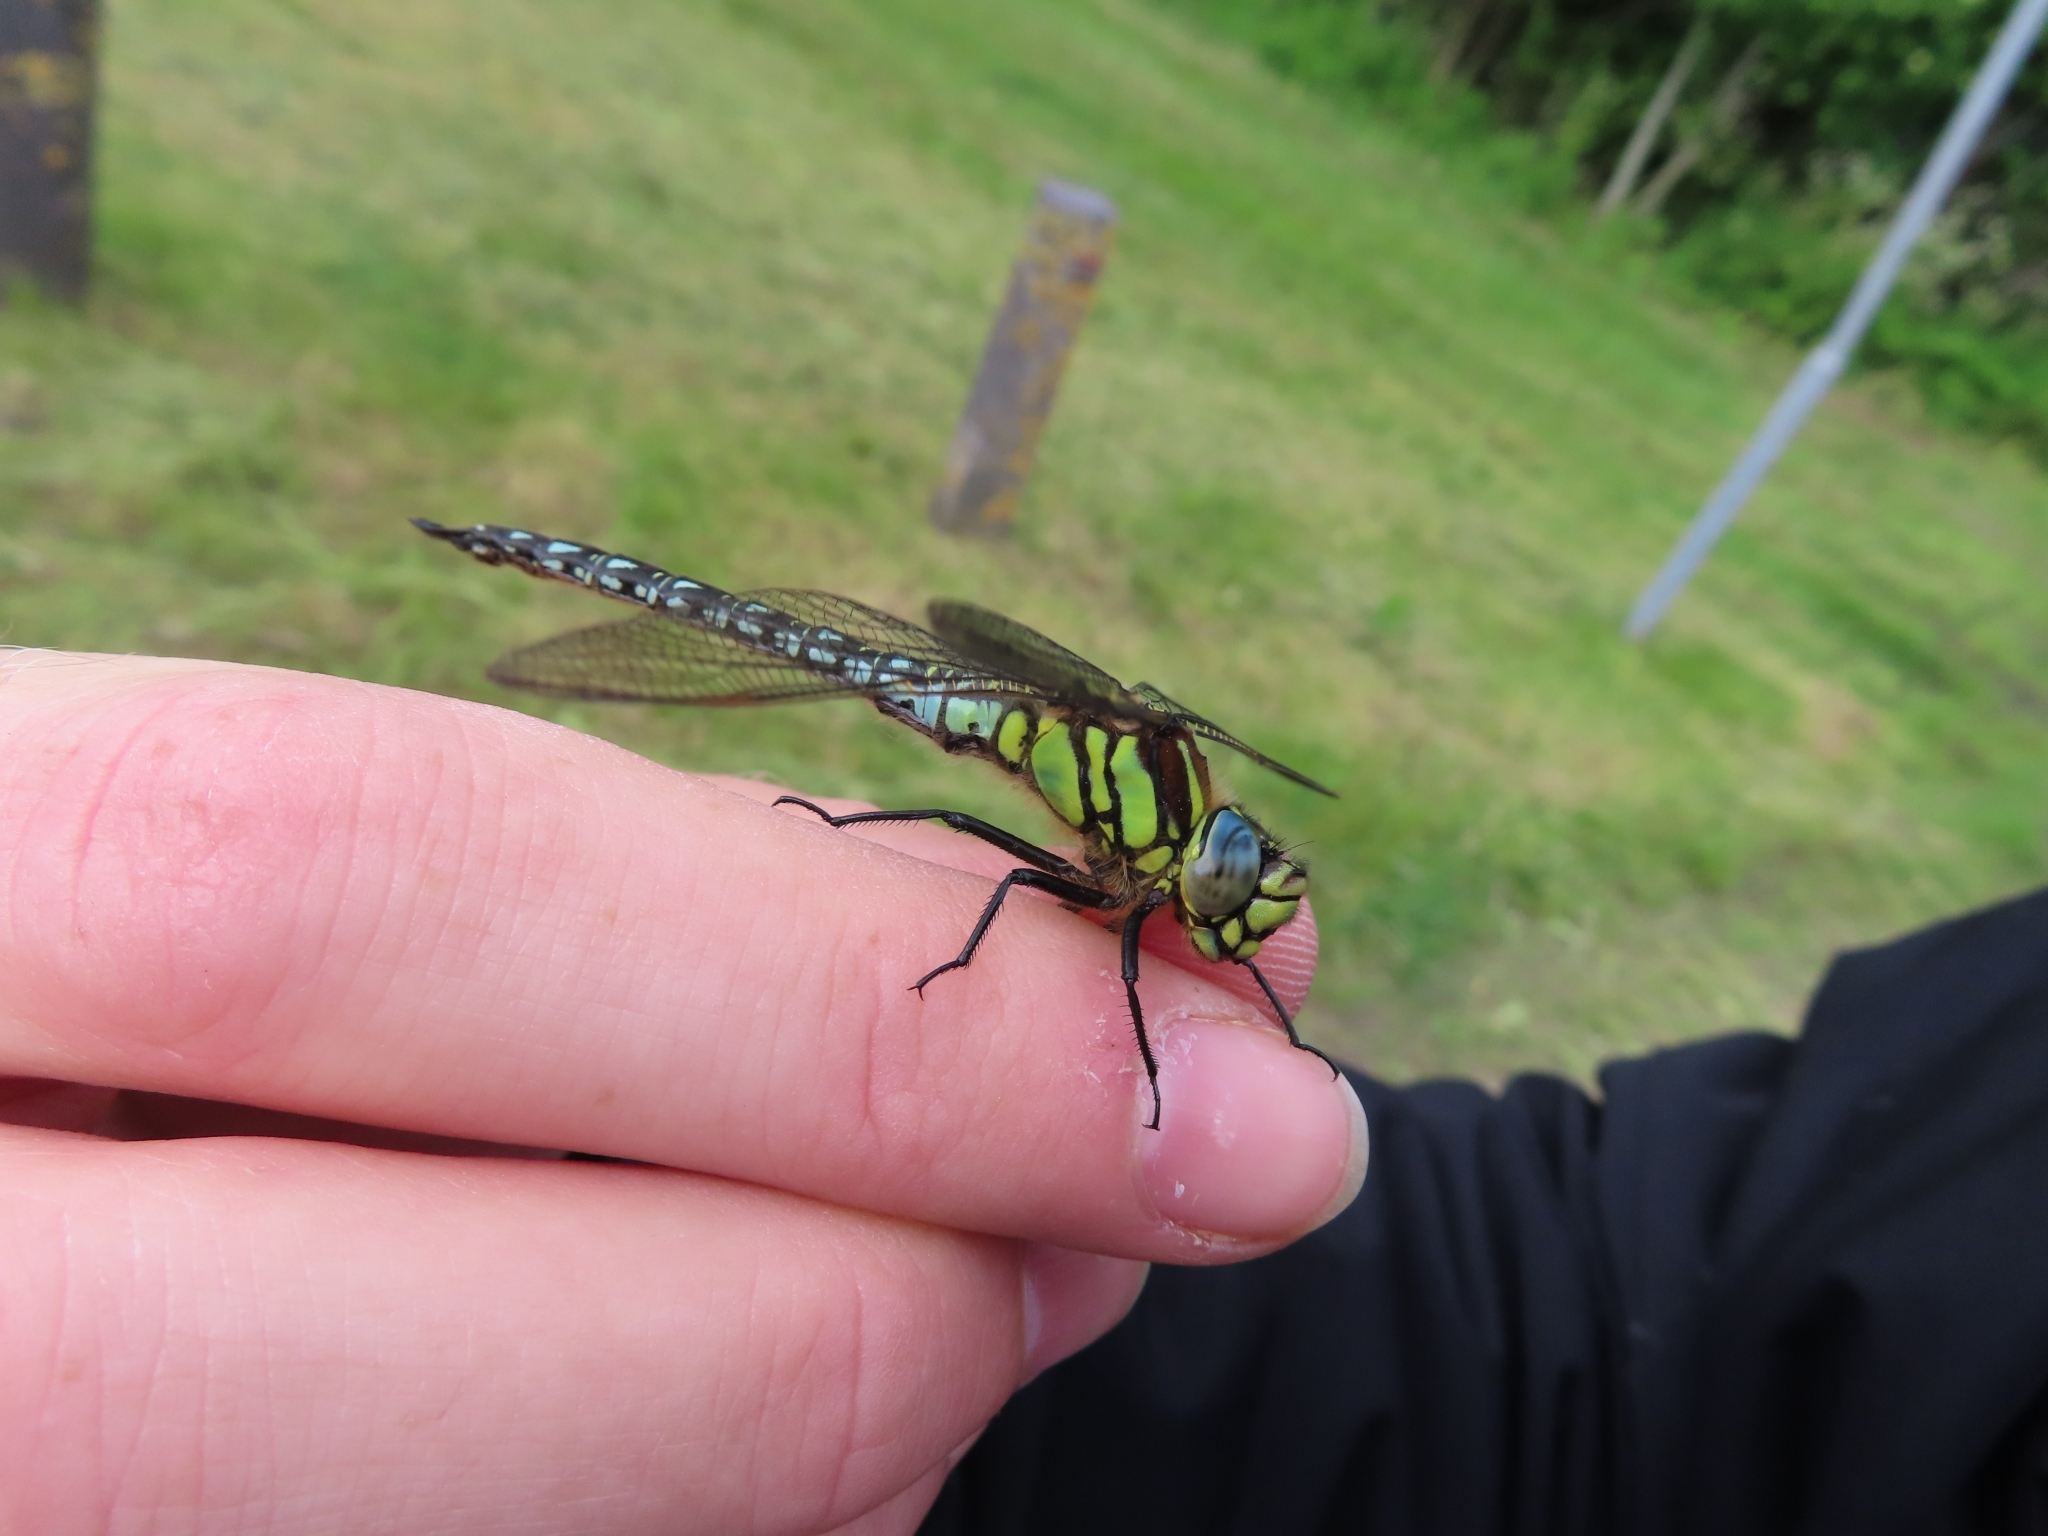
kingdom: Animalia
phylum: Arthropoda
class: Insecta
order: Odonata
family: Aeshnidae
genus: Brachytron
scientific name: Brachytron pratense
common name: Hairy hawker
